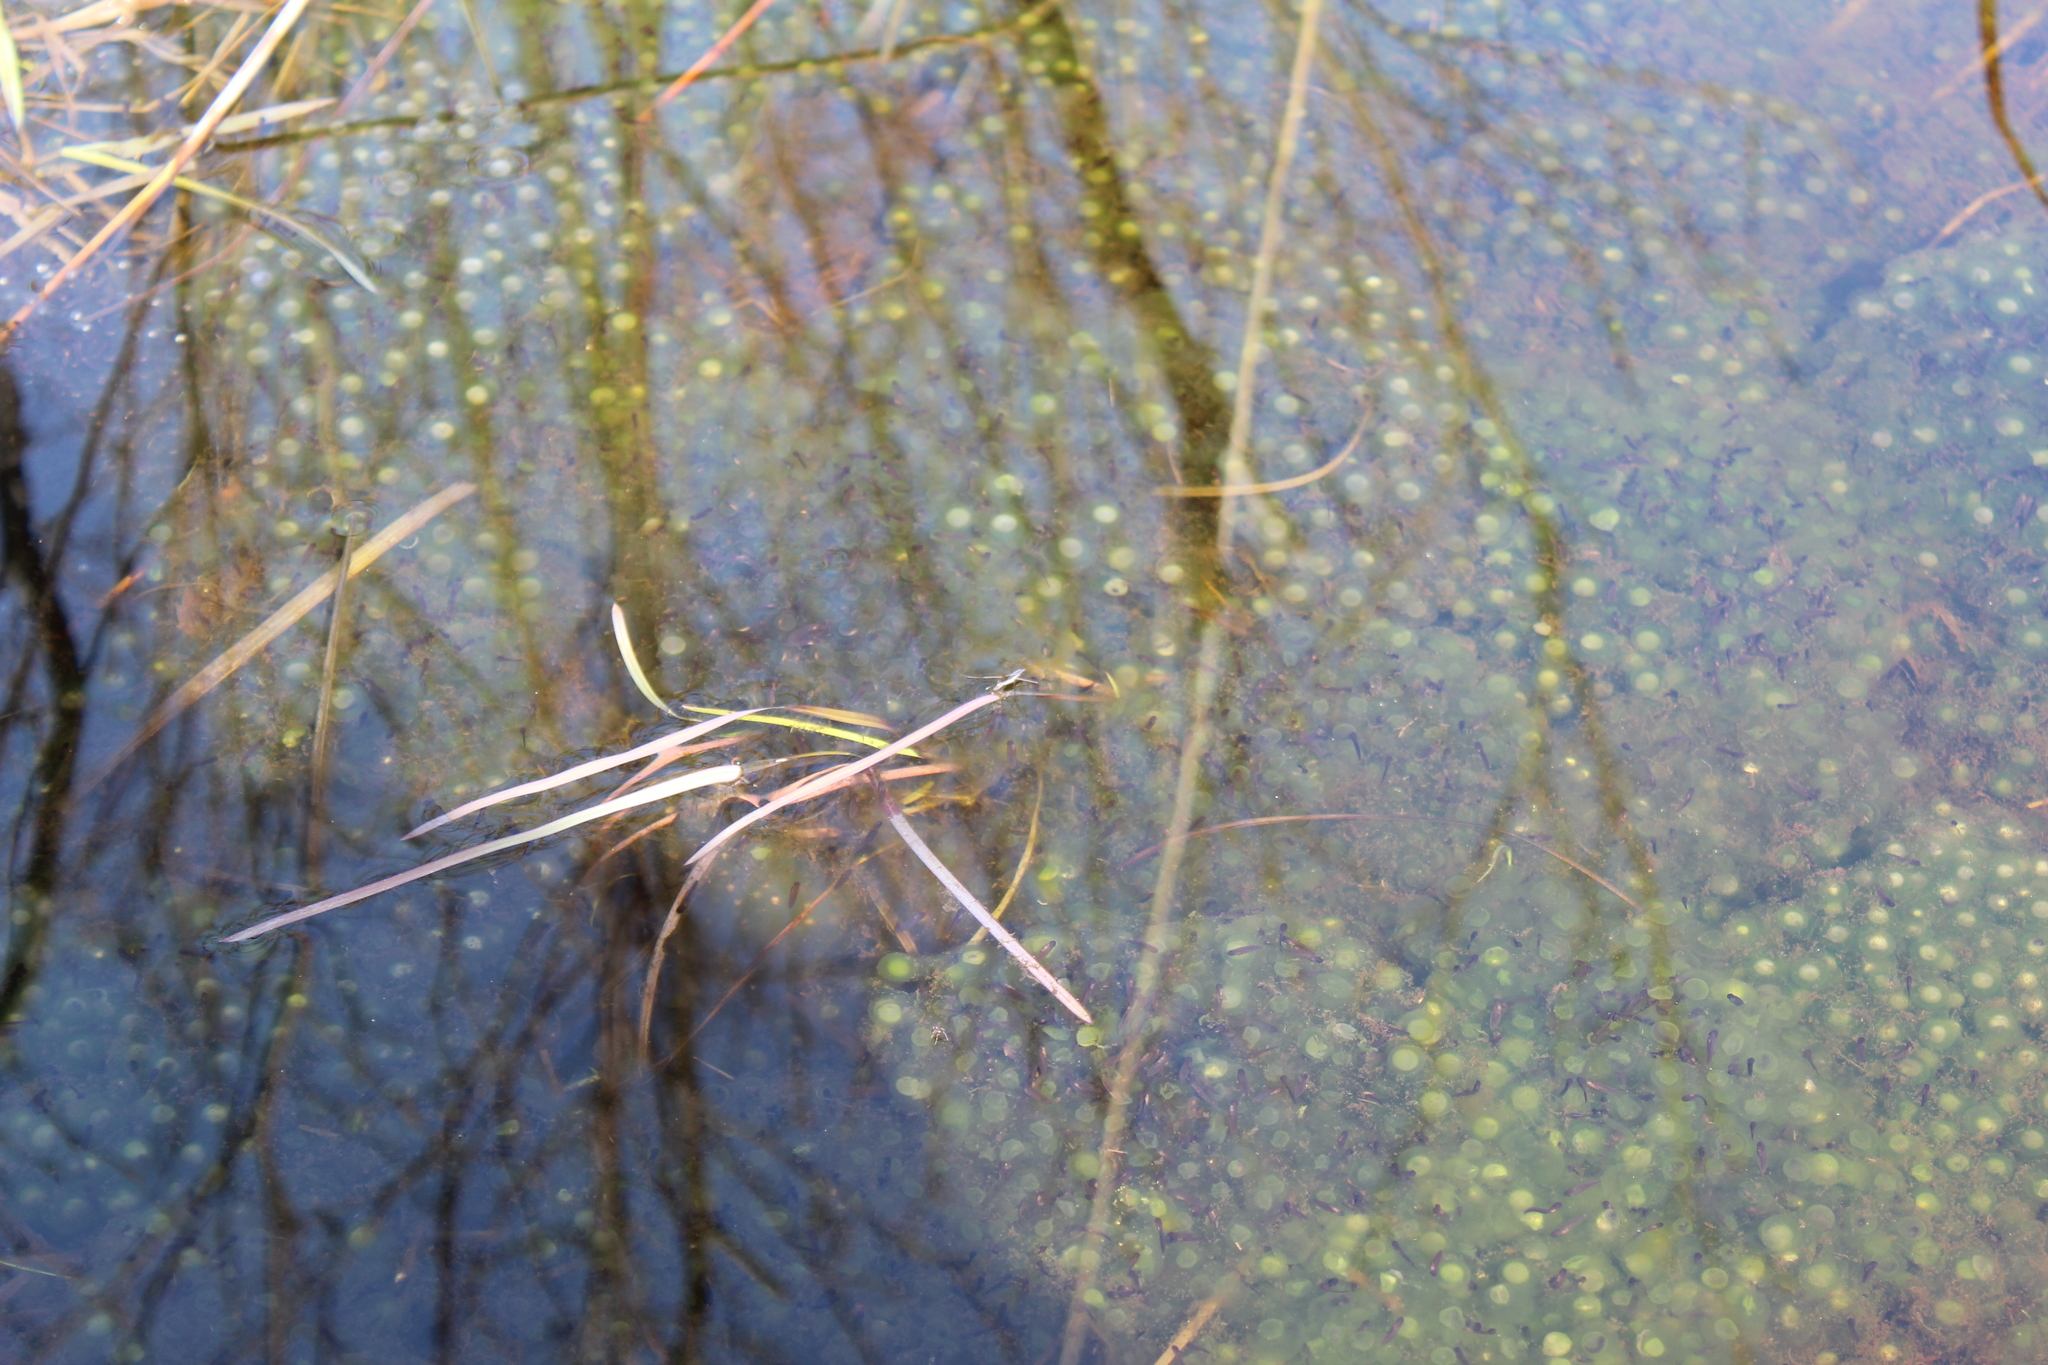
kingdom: Animalia
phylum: Chordata
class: Amphibia
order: Anura
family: Ranidae
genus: Lithobates
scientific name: Lithobates sylvaticus
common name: Wood frog
